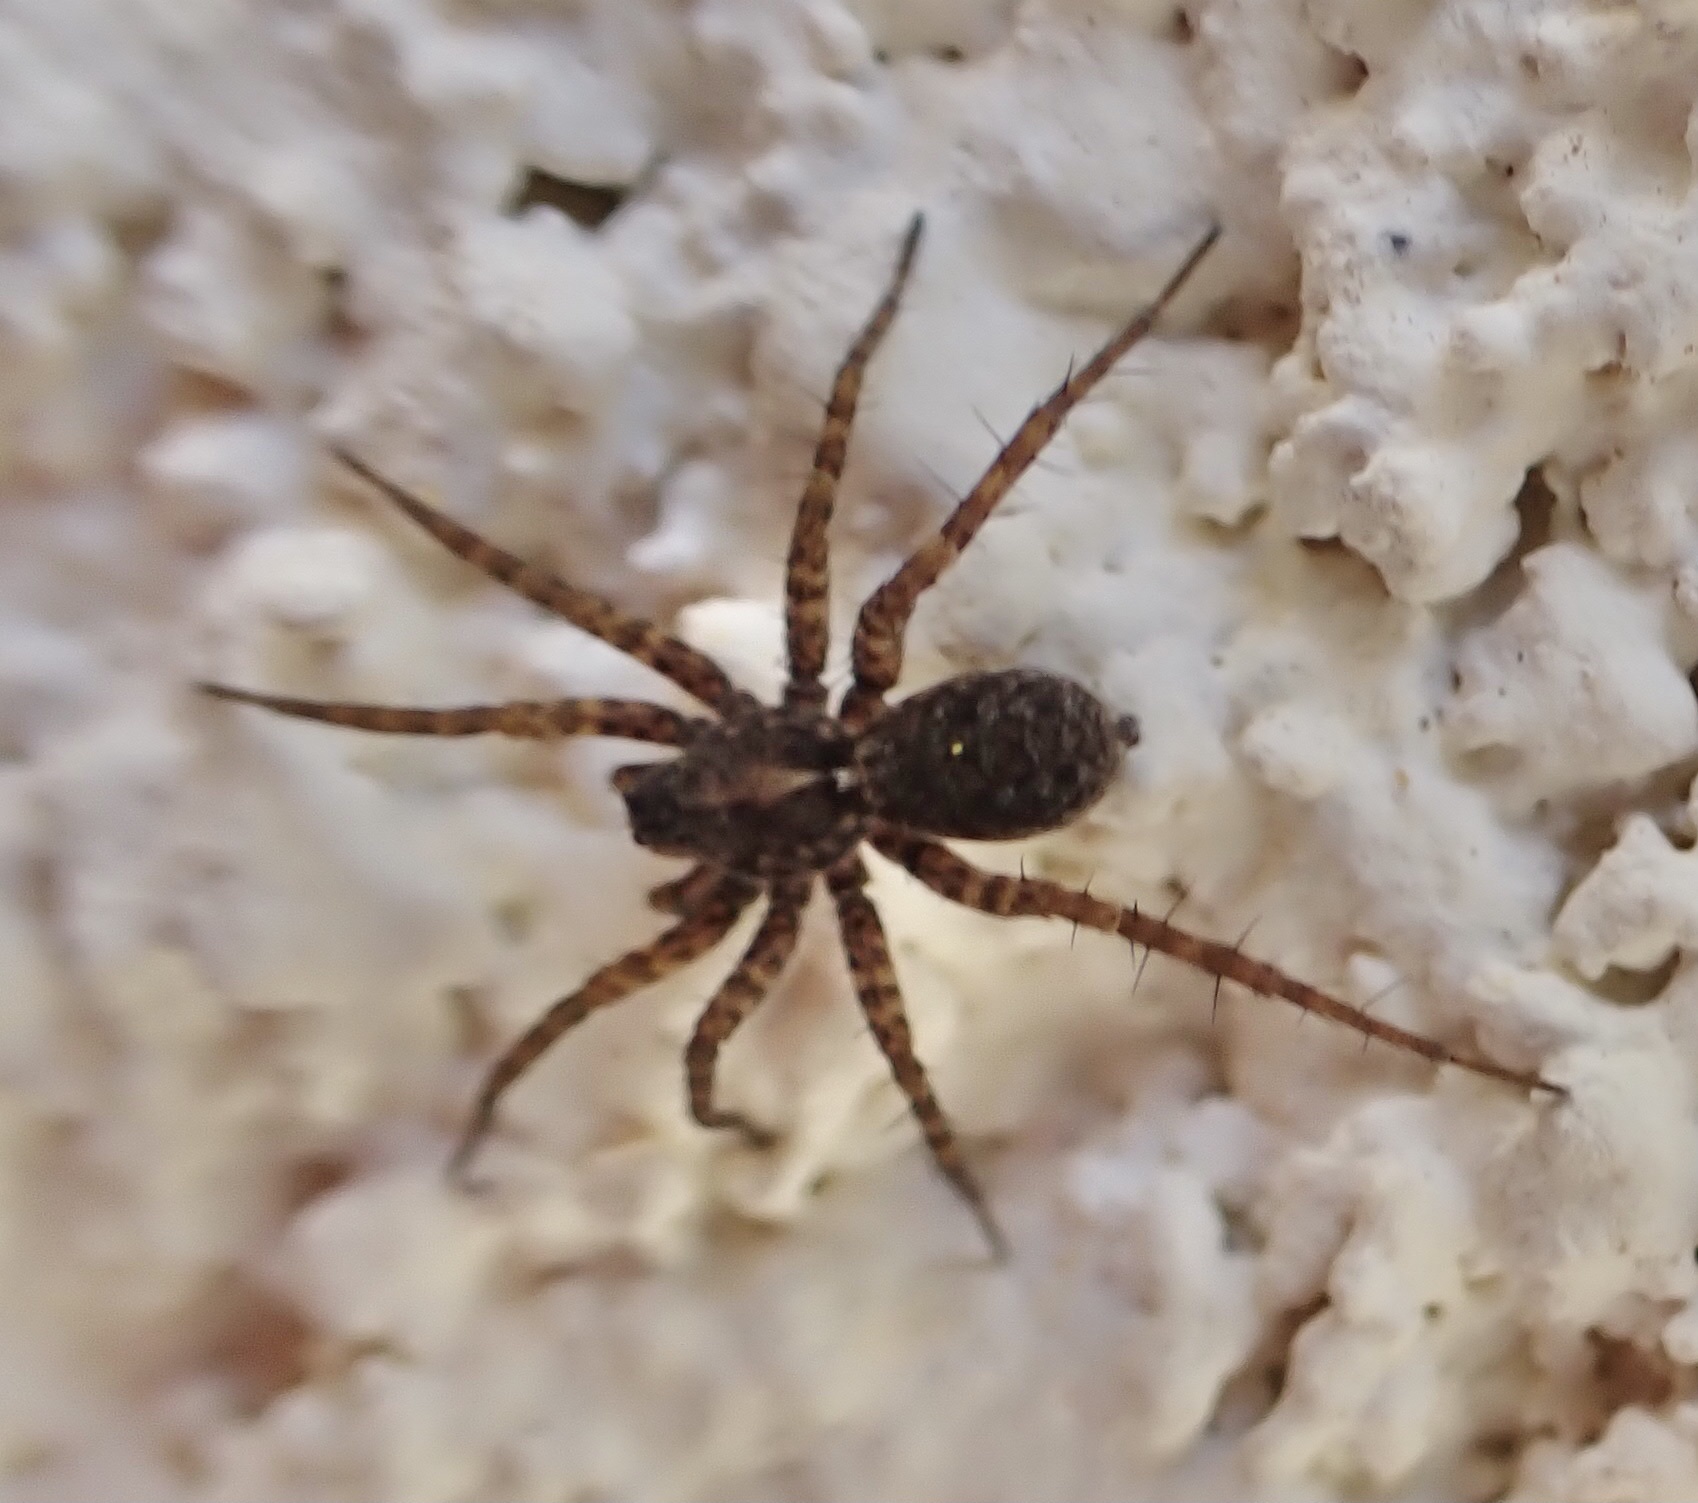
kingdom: Animalia
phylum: Arthropoda
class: Arachnida
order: Araneae
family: Lycosidae
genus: Pardosa
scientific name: Pardosa
